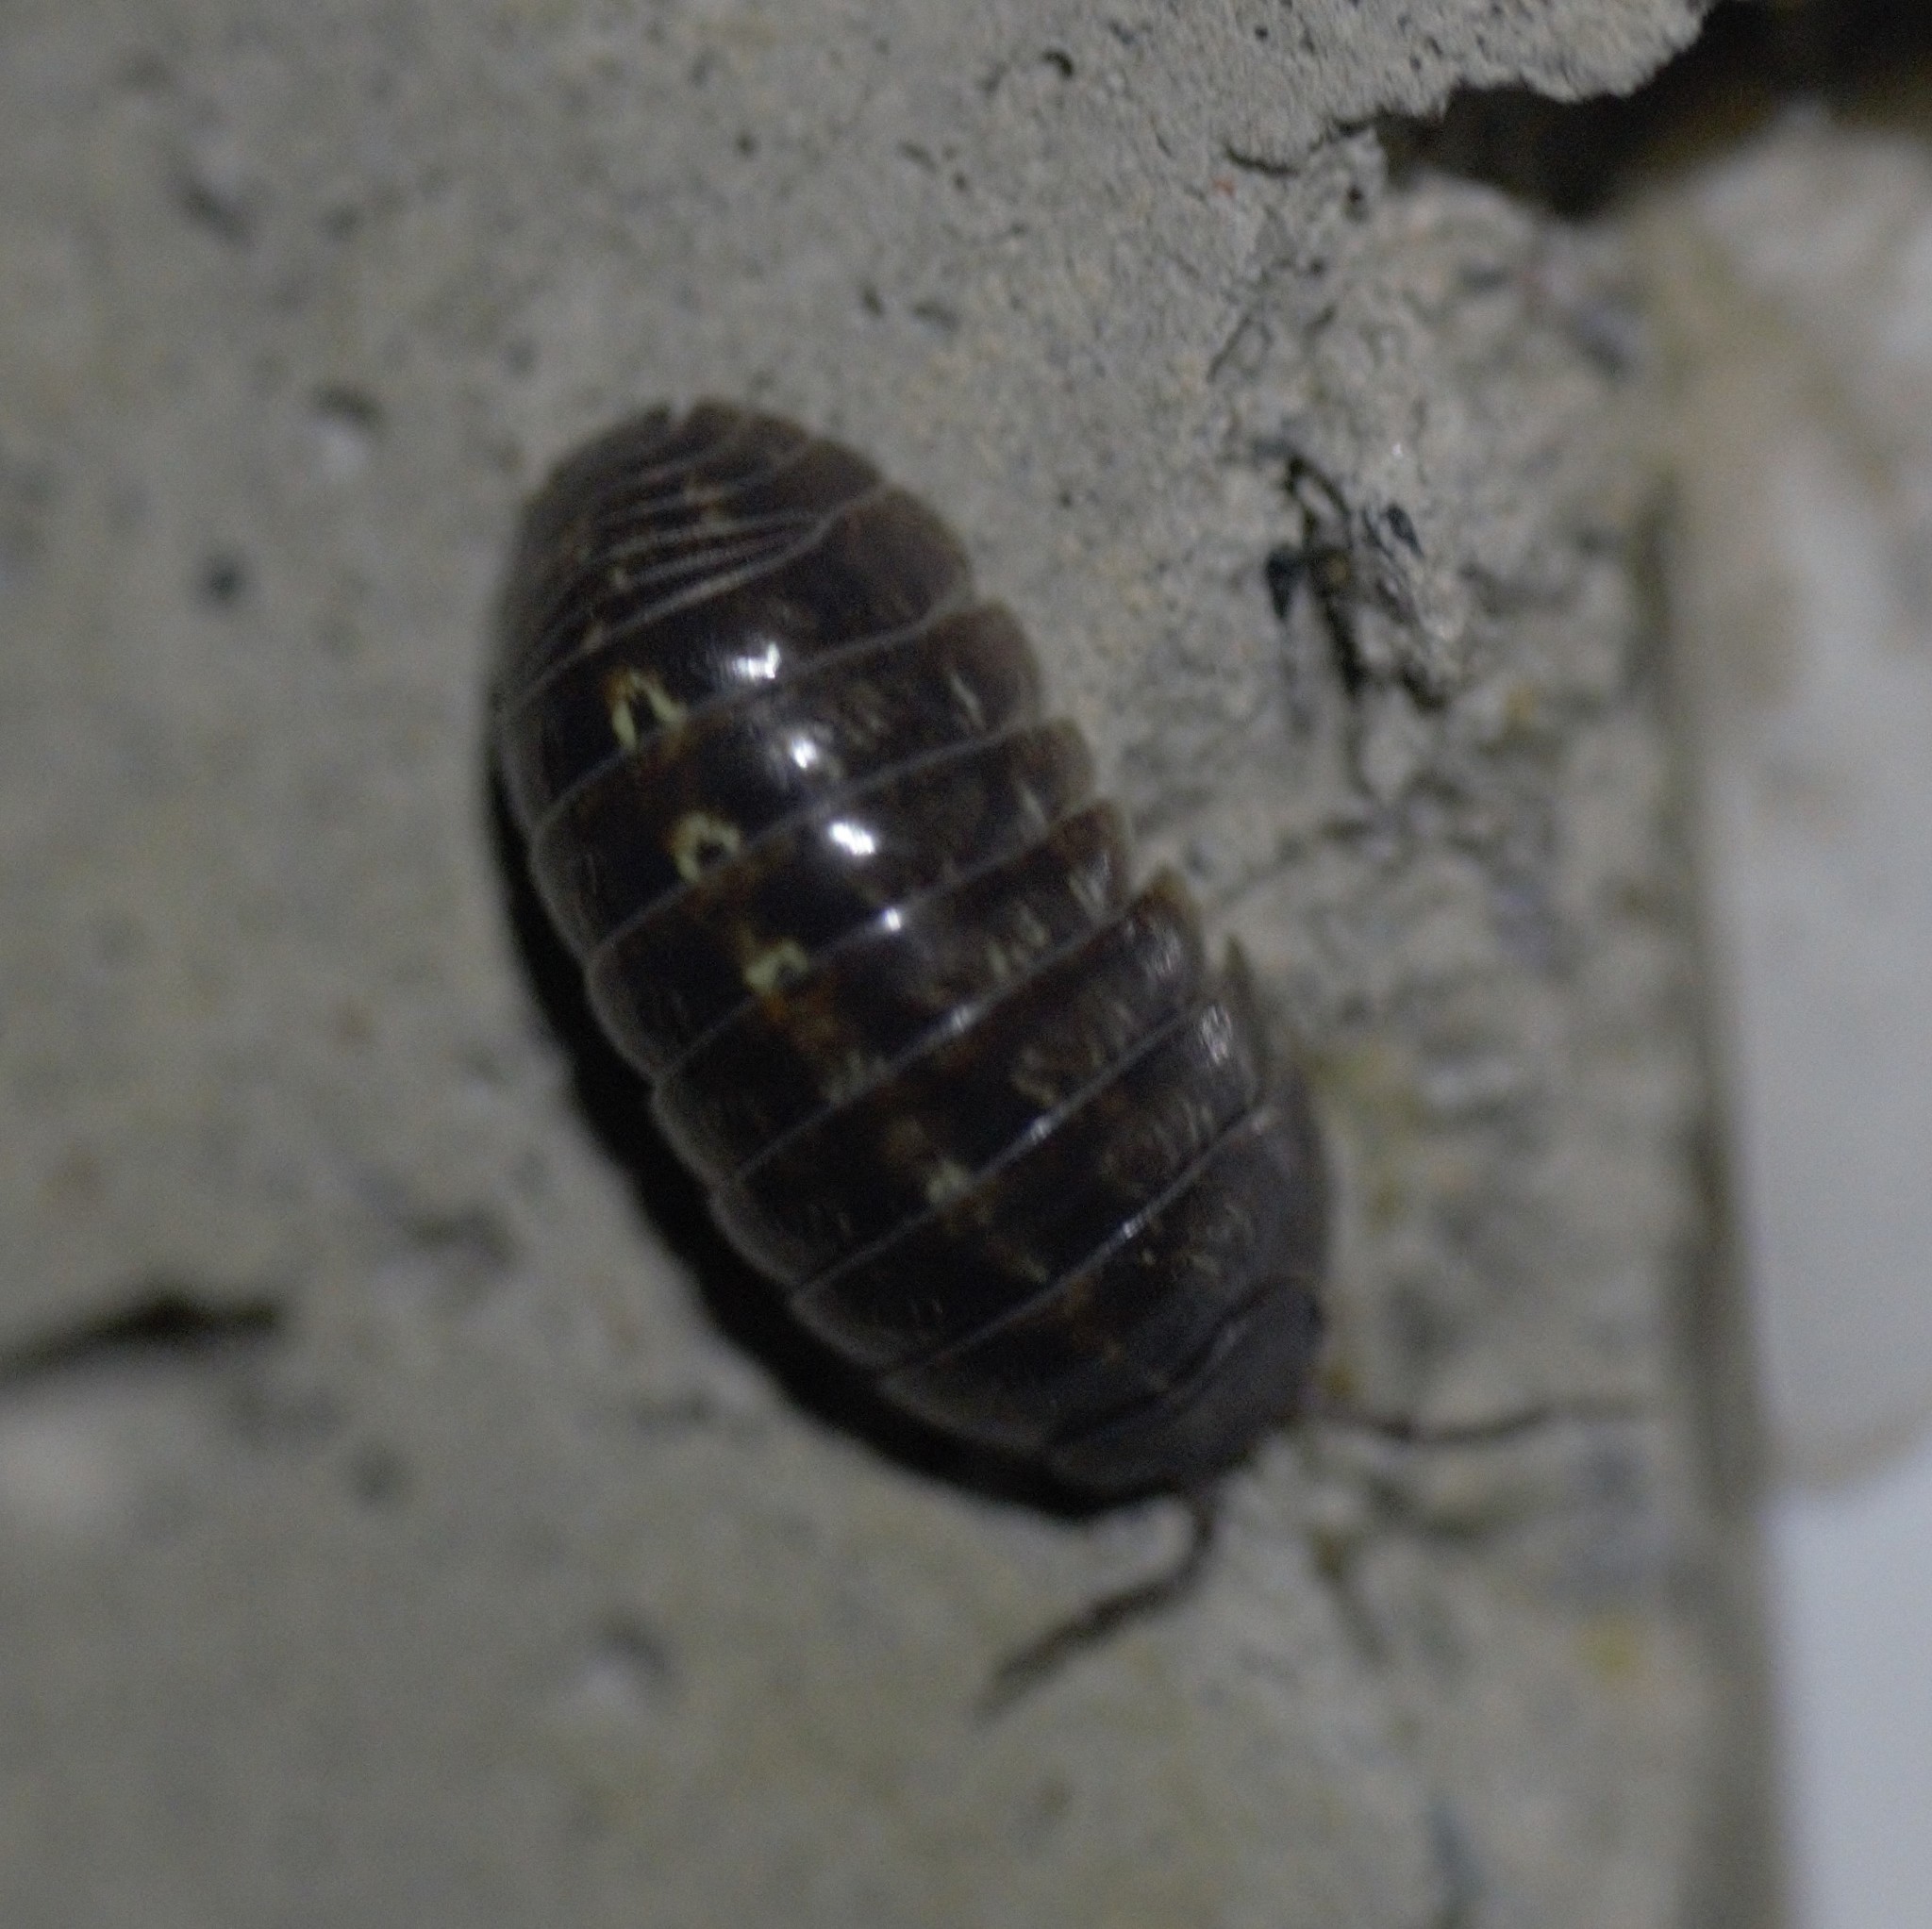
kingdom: Animalia
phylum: Arthropoda
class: Malacostraca
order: Isopoda
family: Armadillidiidae
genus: Armadillidium
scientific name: Armadillidium vulgare
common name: Common pill woodlouse
